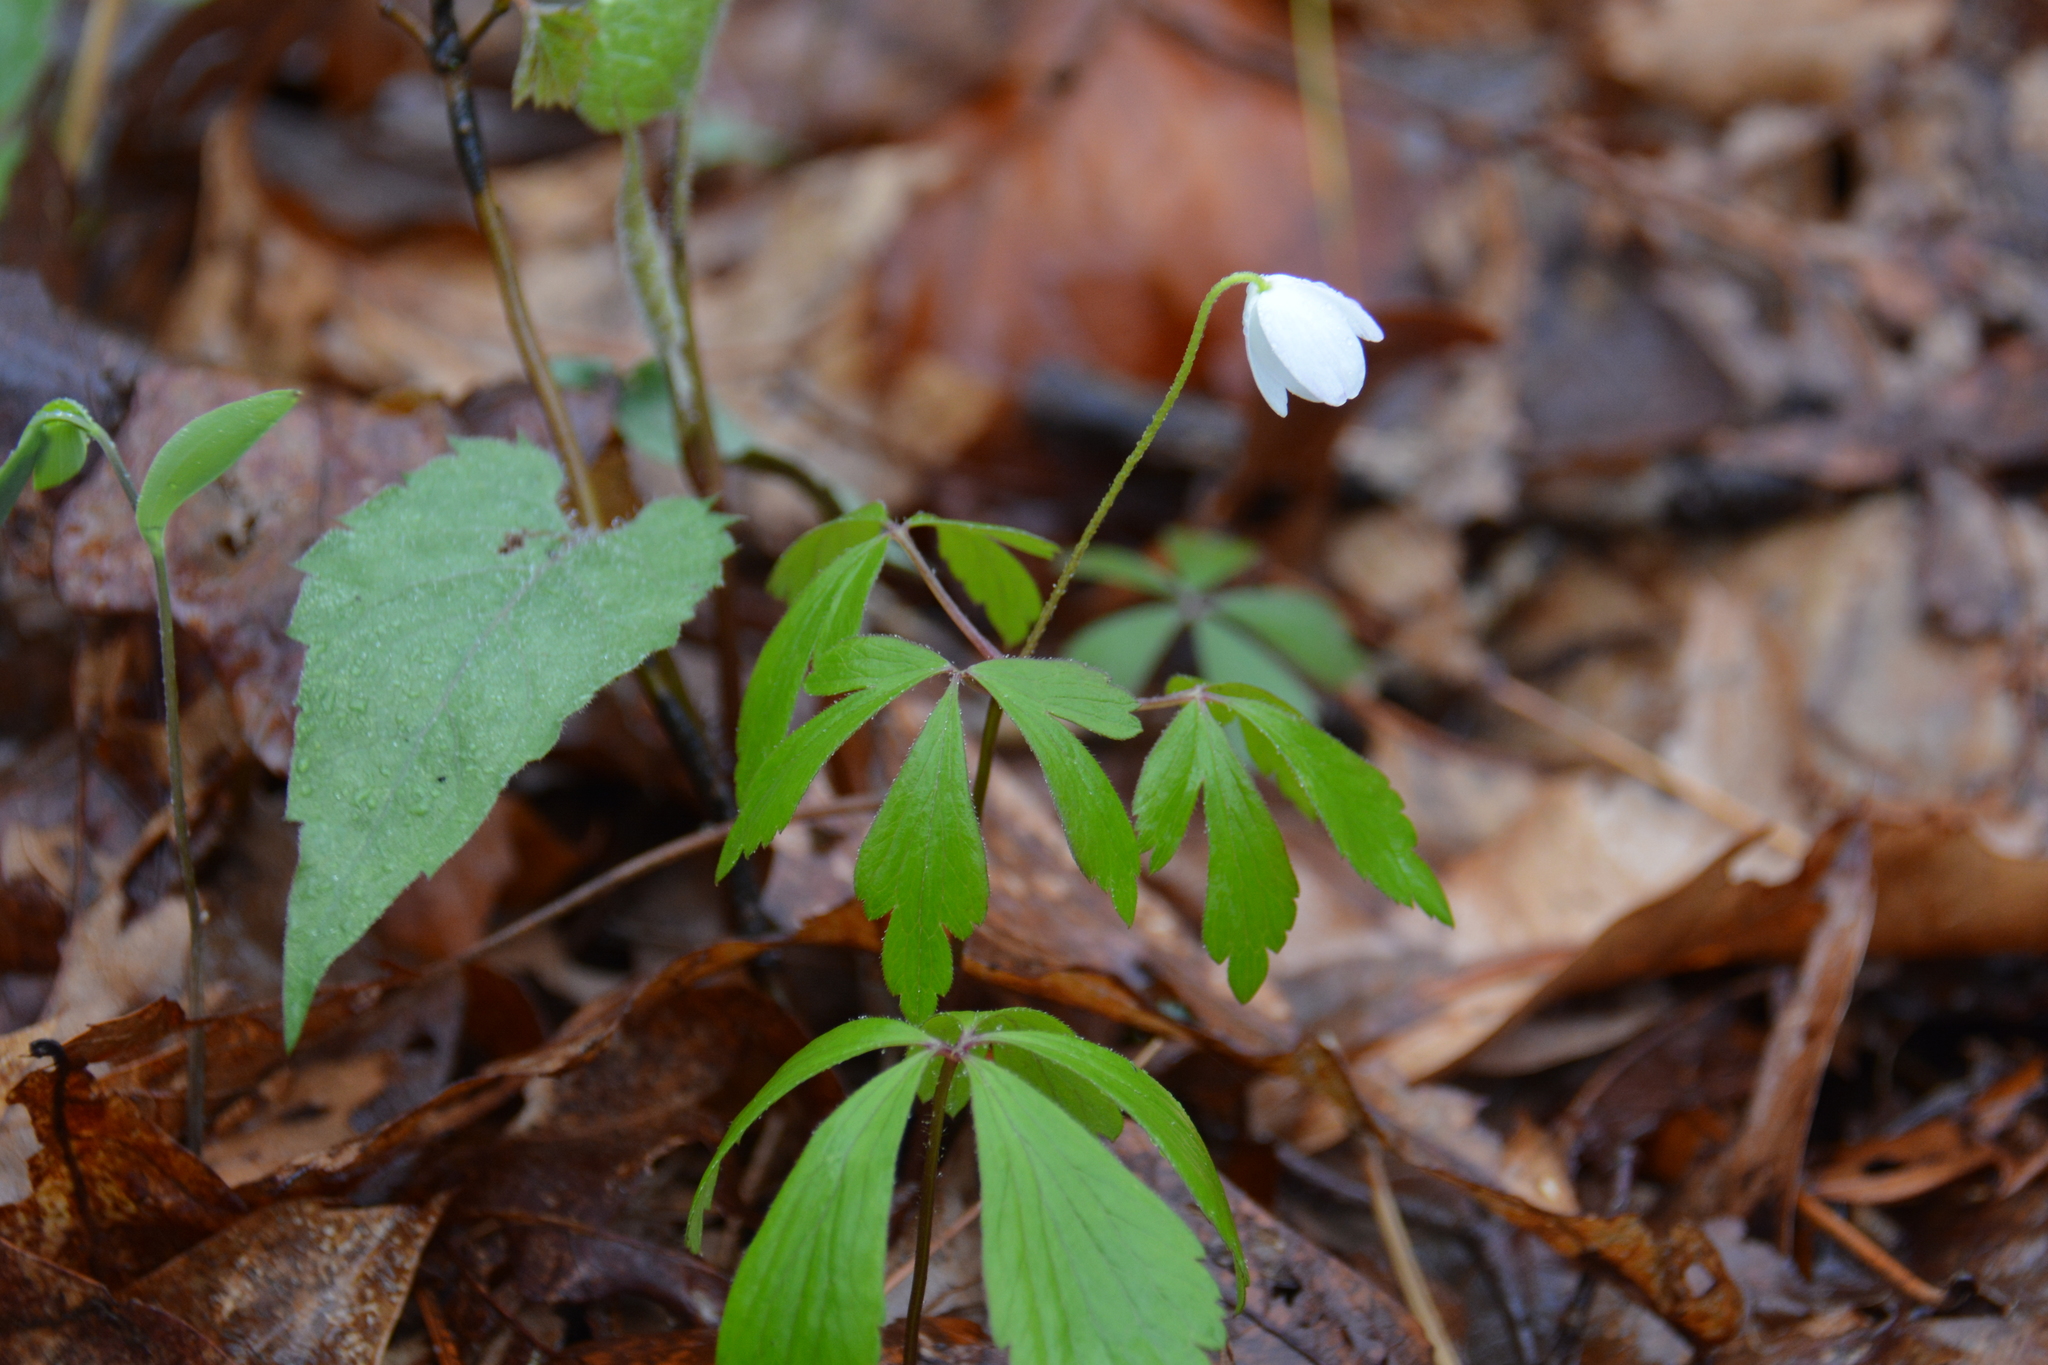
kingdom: Plantae
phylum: Tracheophyta
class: Magnoliopsida
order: Ranunculales
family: Ranunculaceae
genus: Anemone
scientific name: Anemone quinquefolia
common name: Wood anemone
